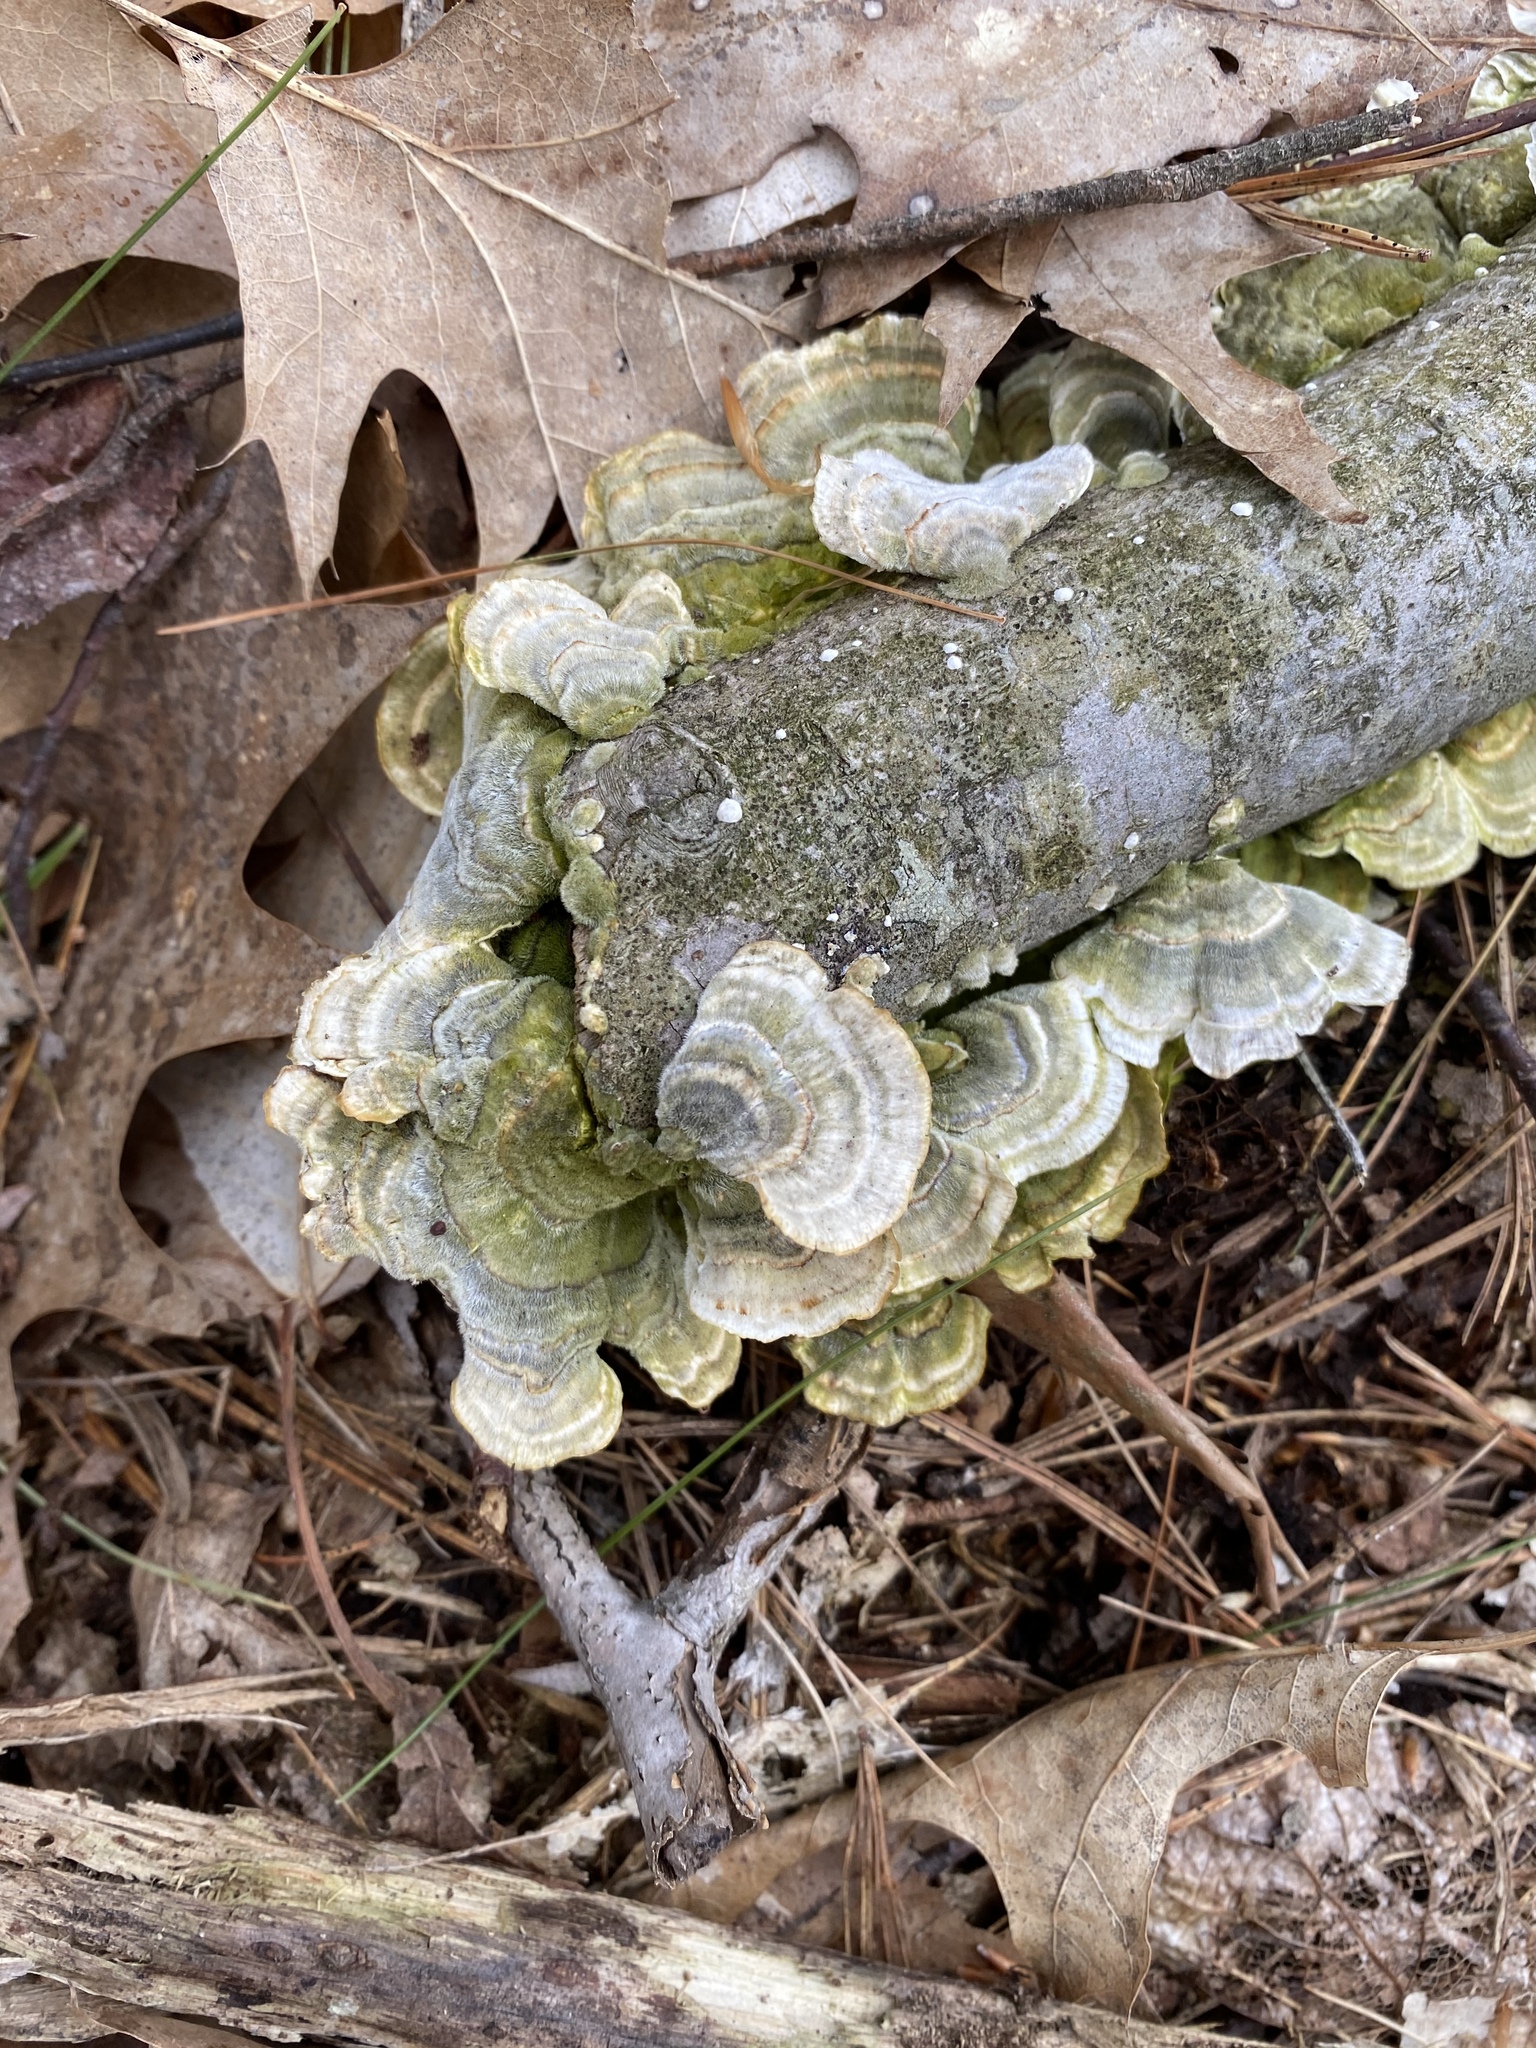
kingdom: Fungi
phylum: Basidiomycota
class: Agaricomycetes
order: Polyporales
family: Polyporaceae
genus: Trametes
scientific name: Trametes versicolor
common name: Turkeytail
